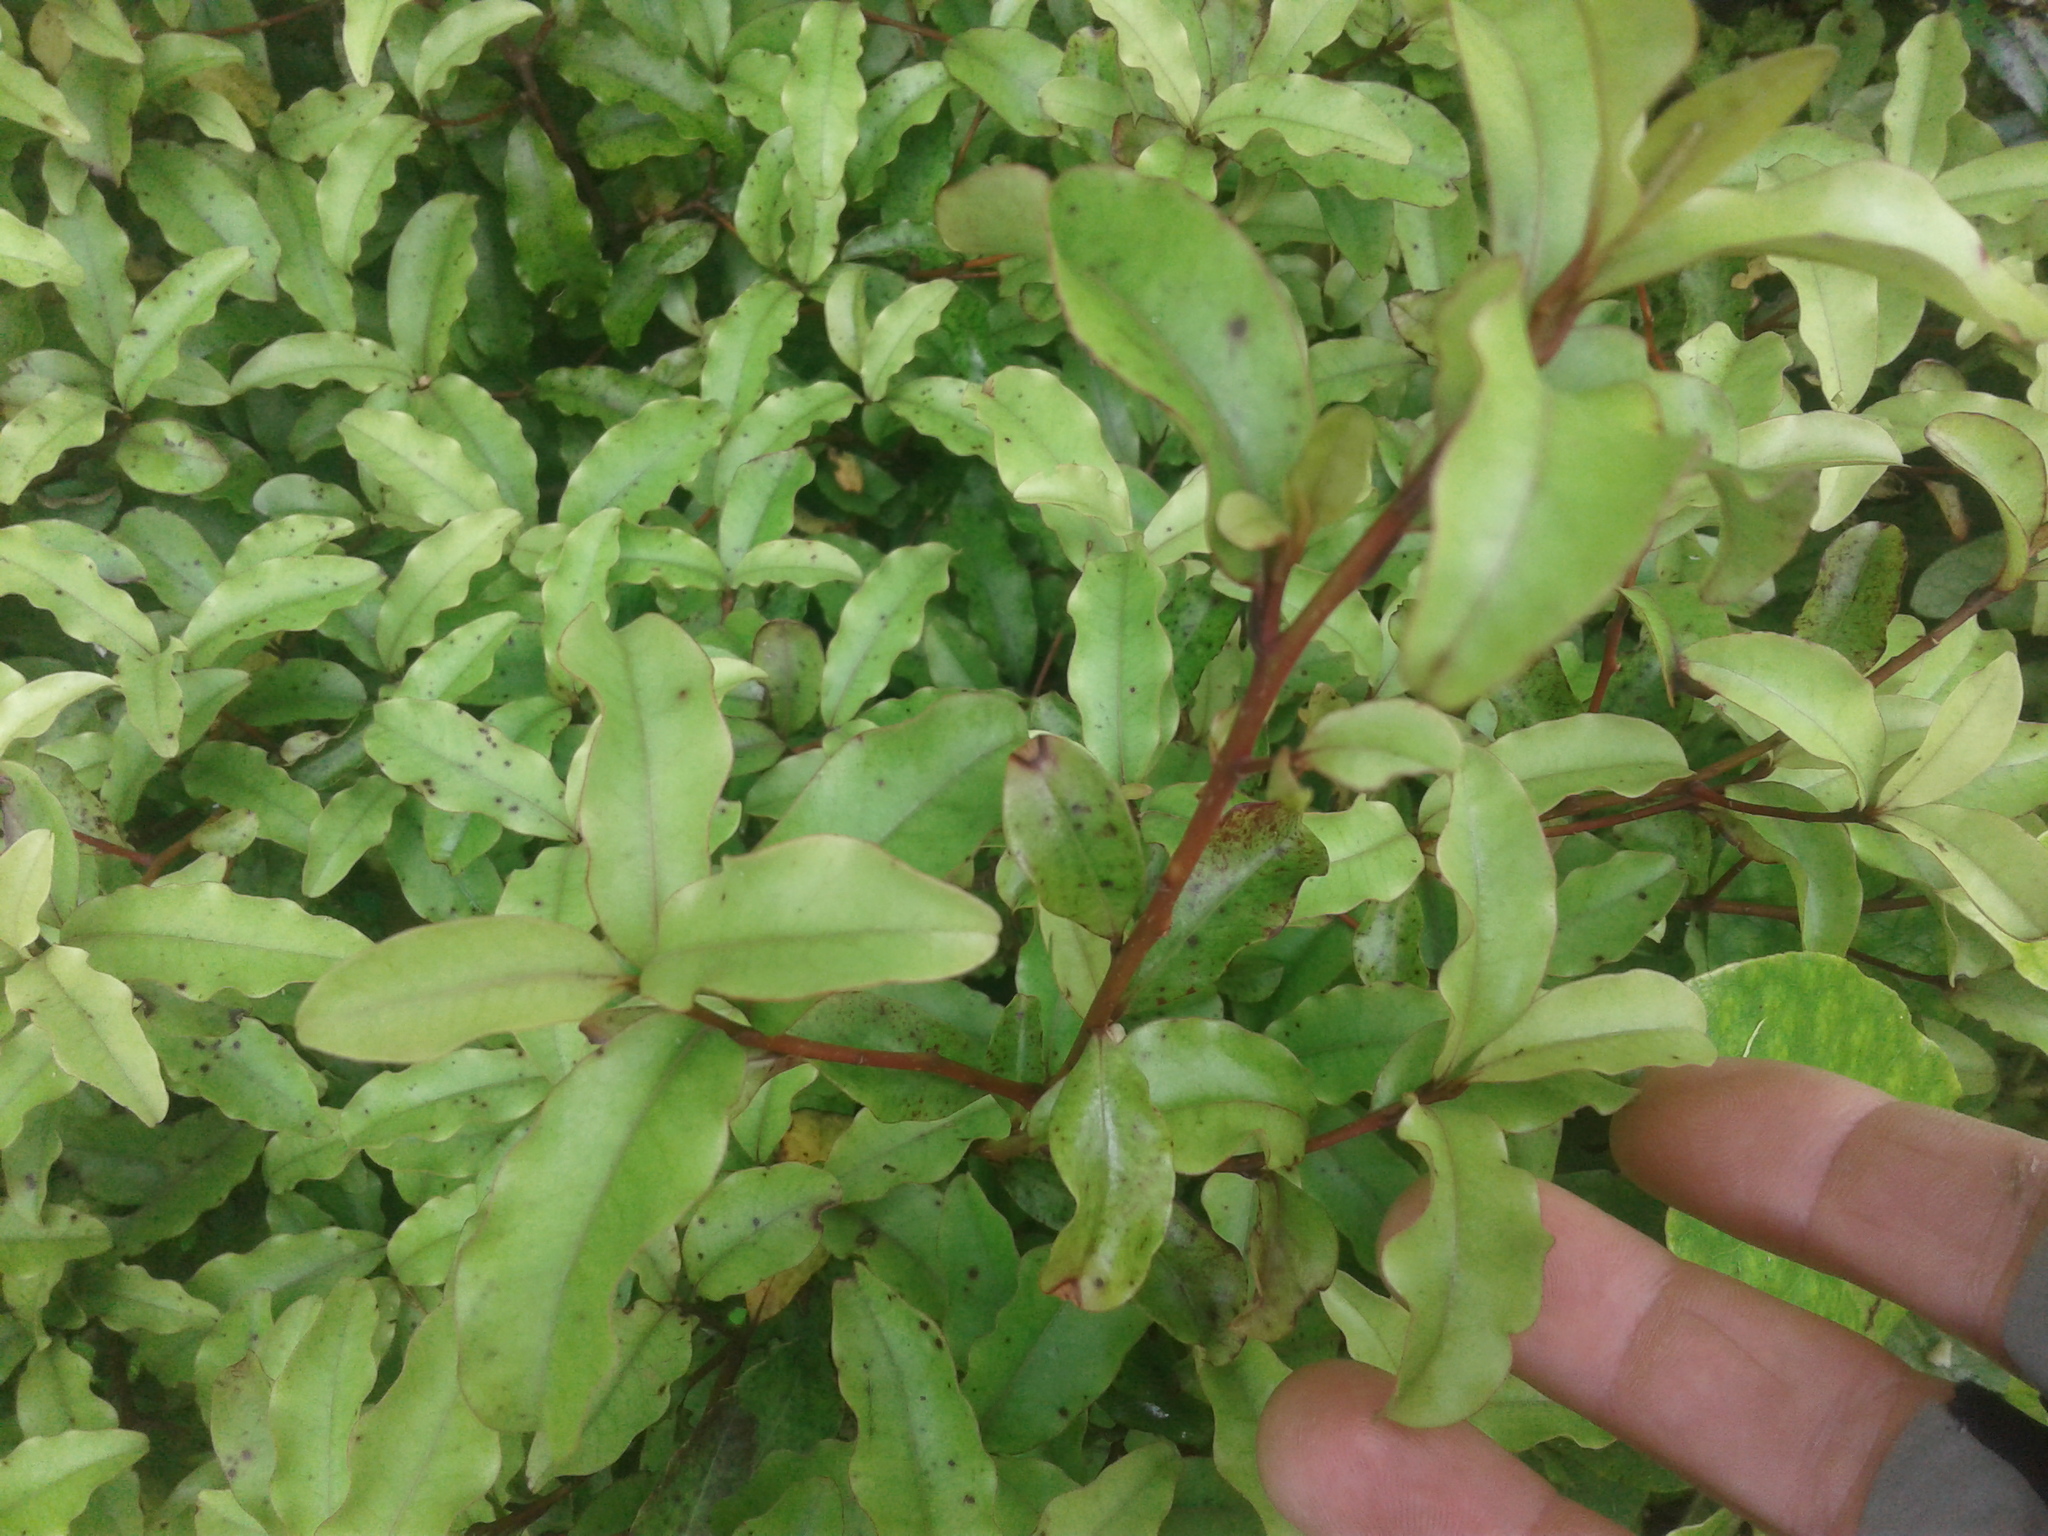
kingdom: Plantae
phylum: Tracheophyta
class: Magnoliopsida
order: Ericales
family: Primulaceae
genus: Myrsine
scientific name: Myrsine australis
